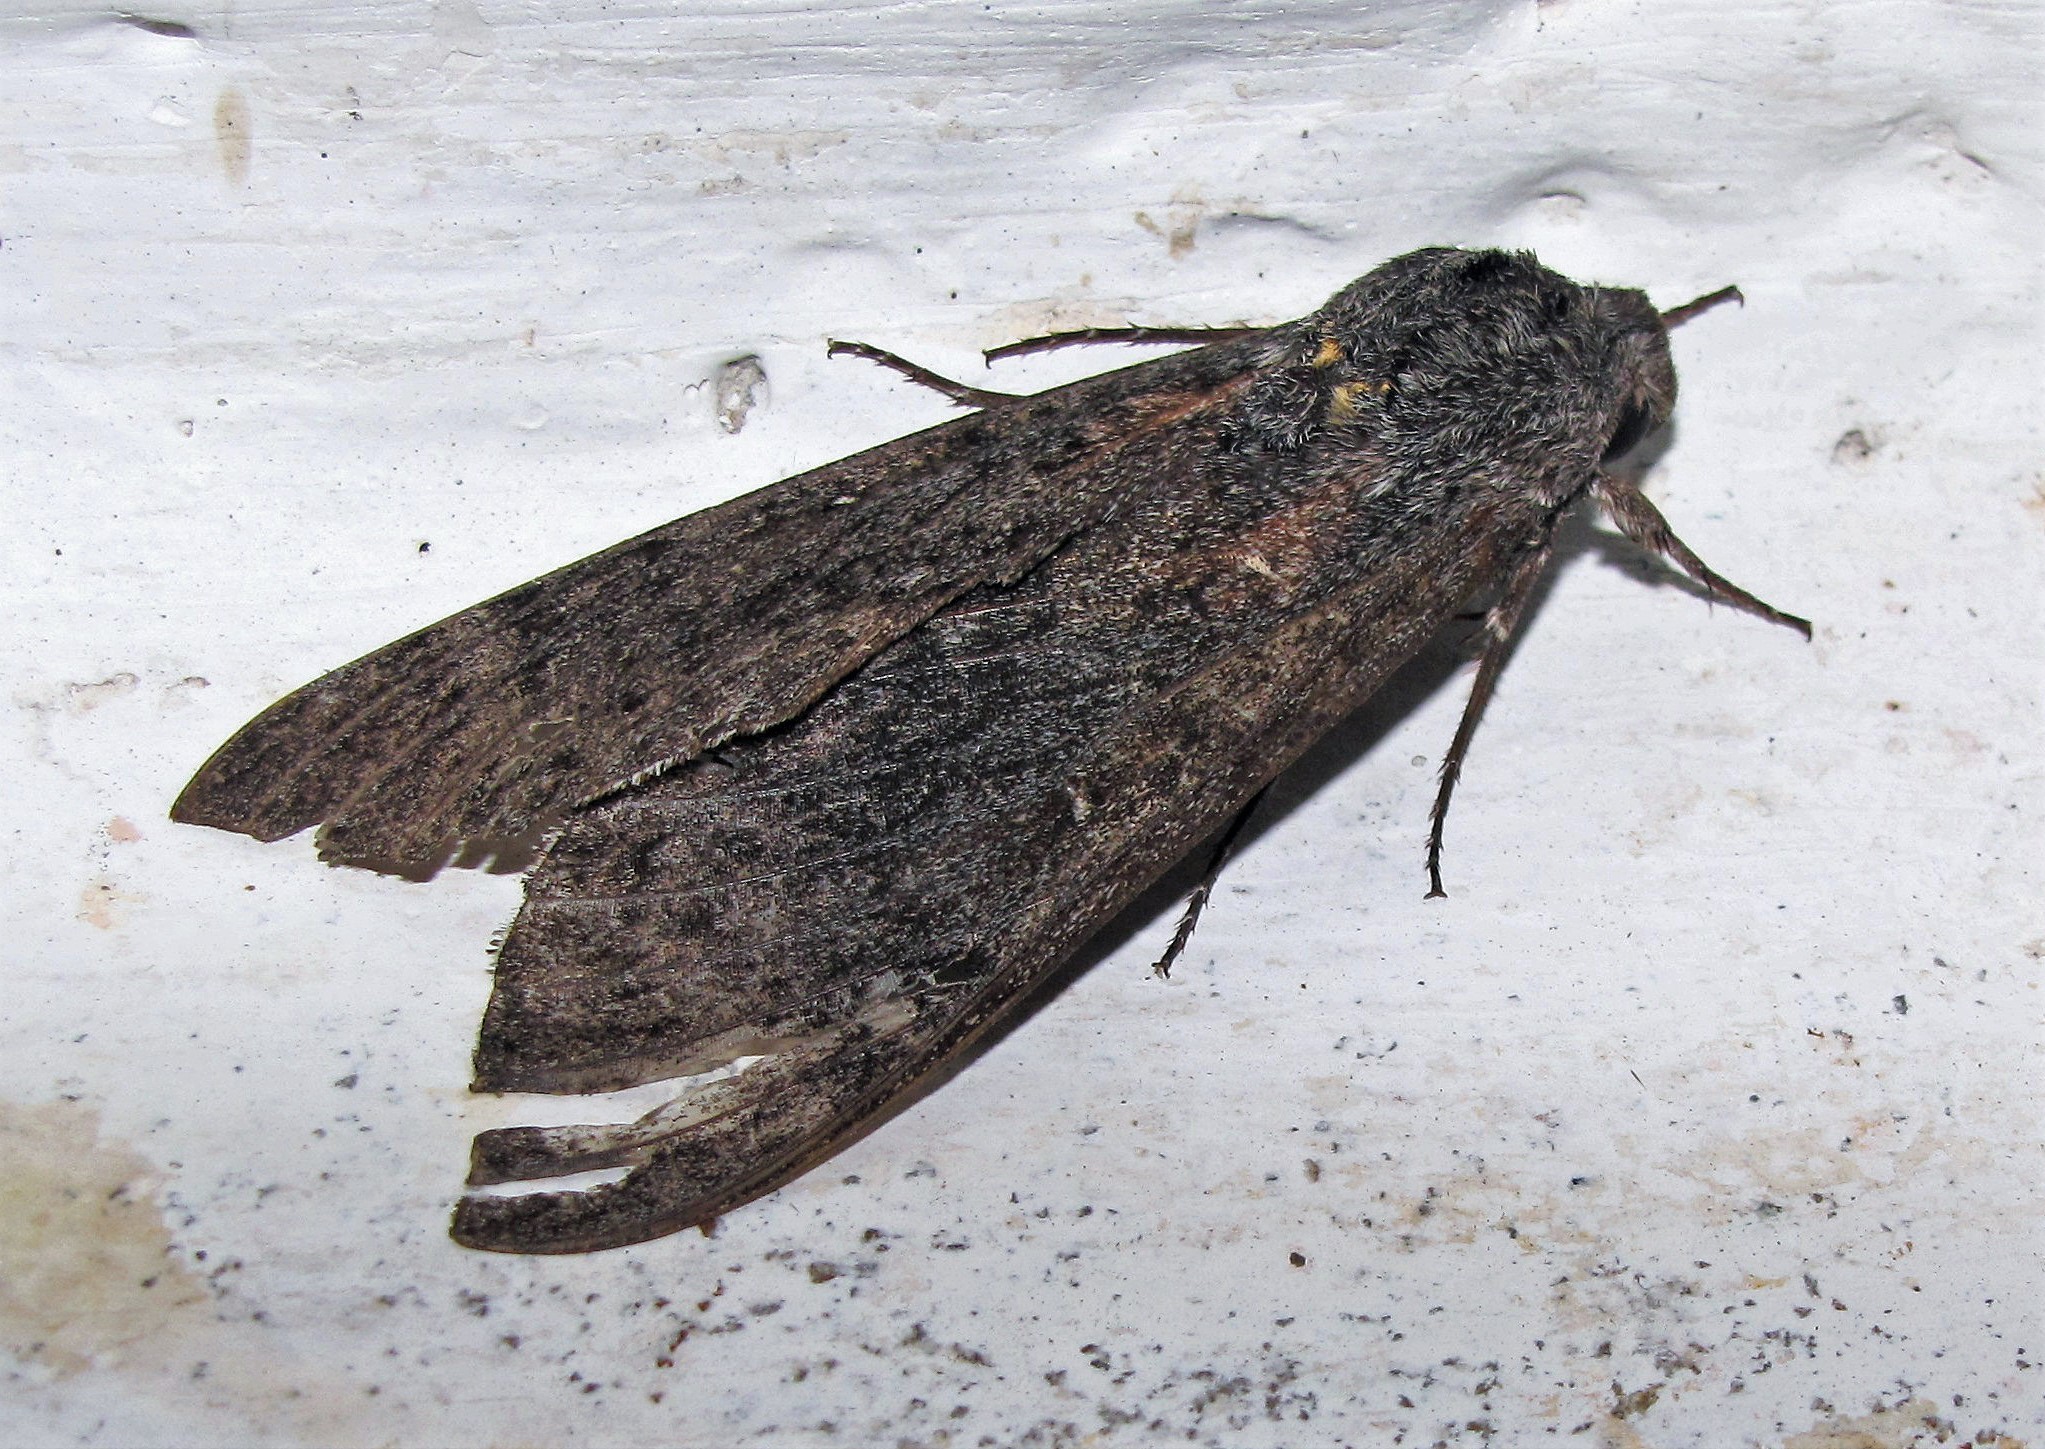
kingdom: Animalia
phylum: Arthropoda
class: Insecta
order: Lepidoptera
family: Sphingidae
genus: Lintneria
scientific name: Lintneria phalerata
